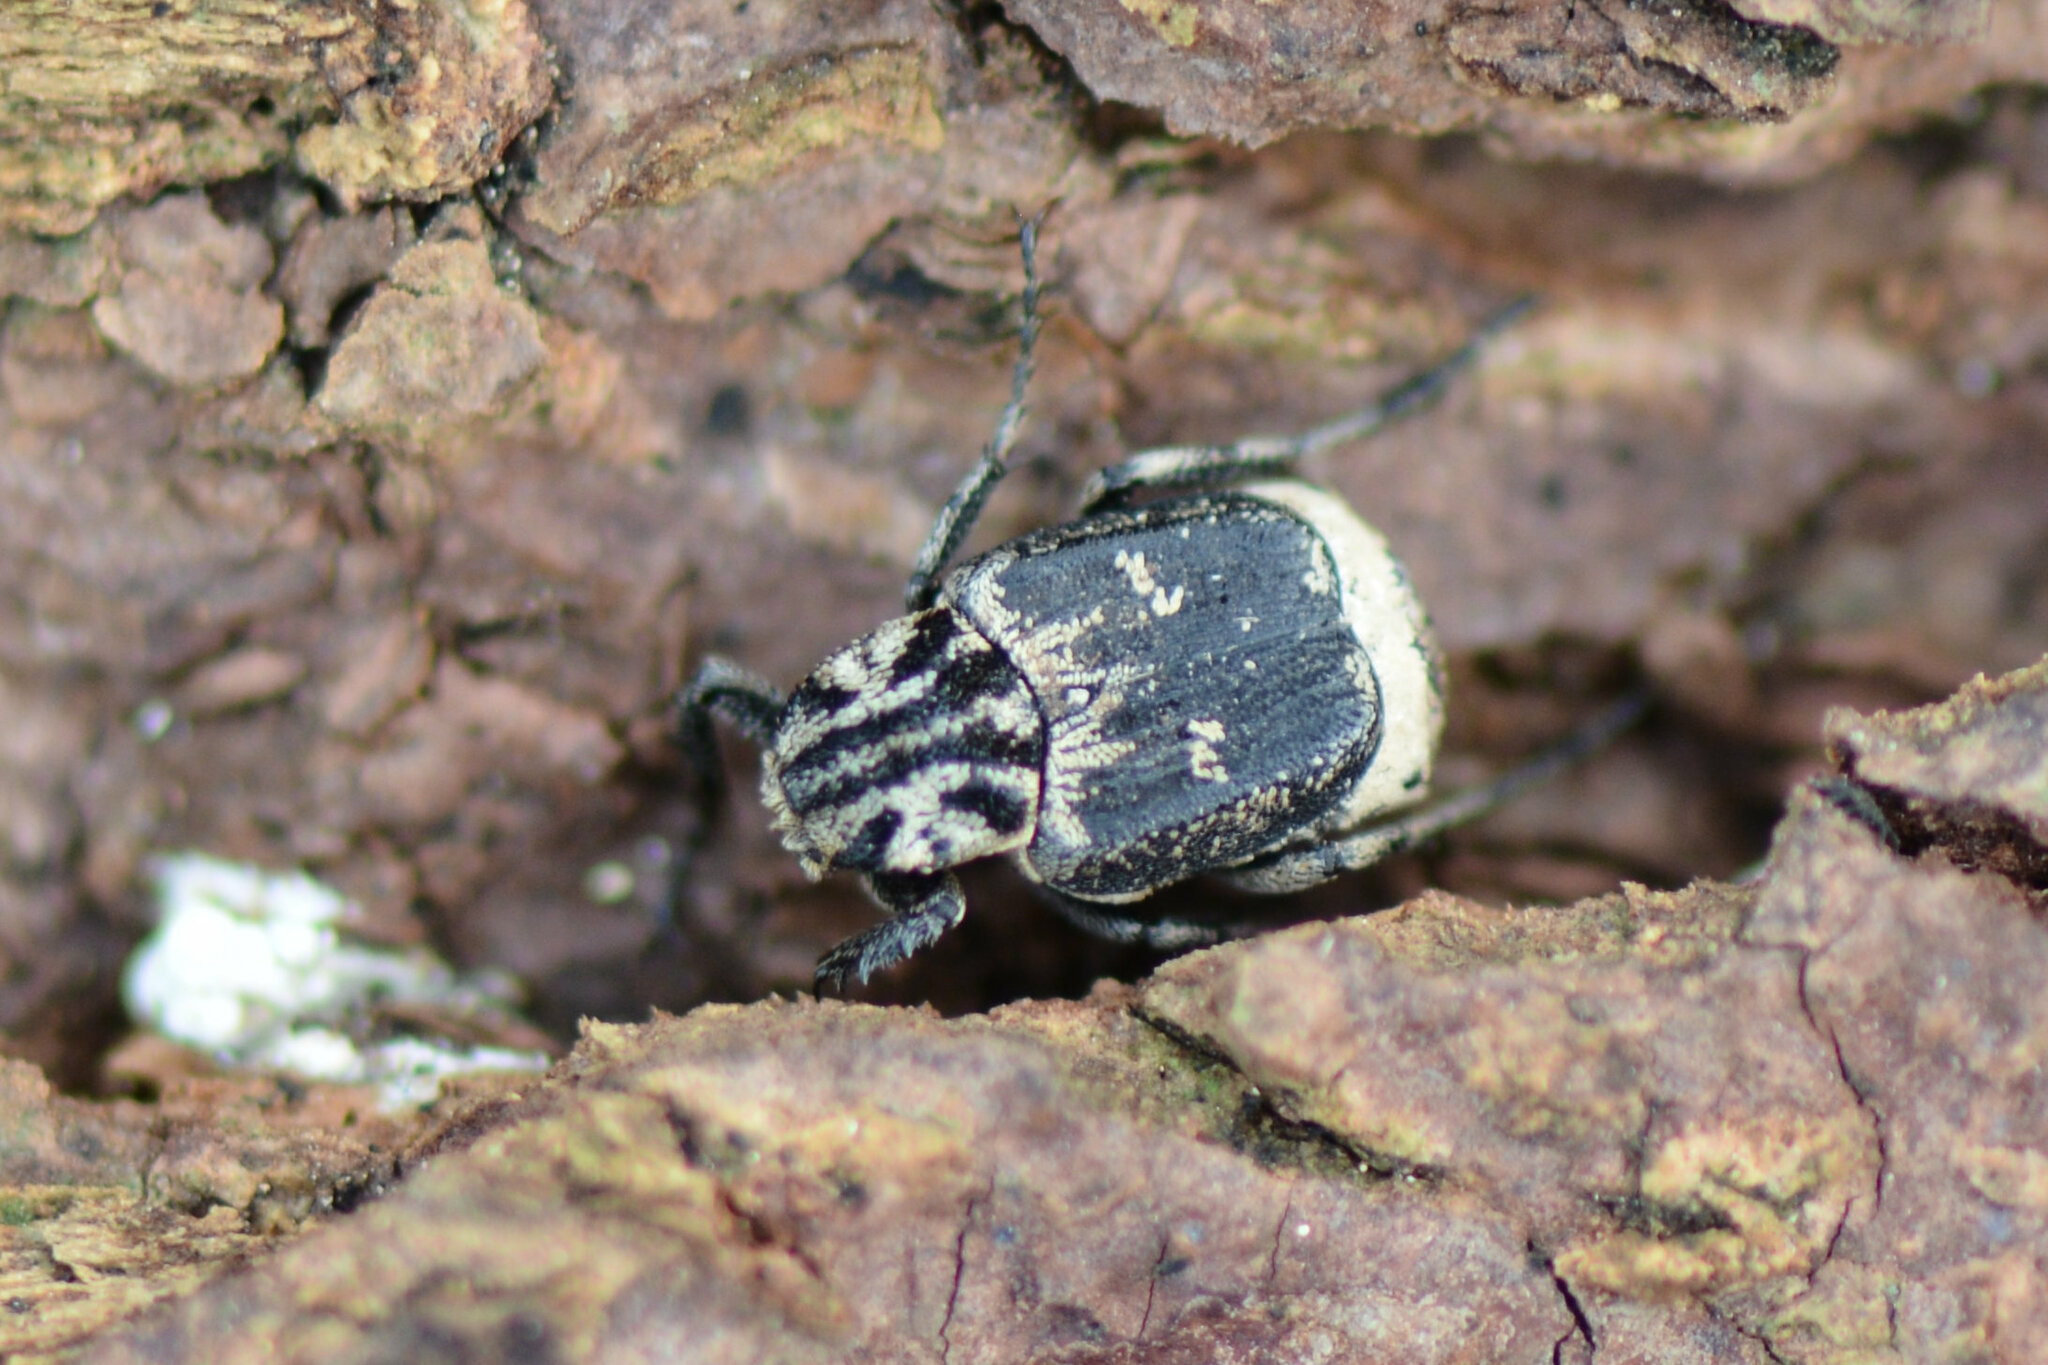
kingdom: Animalia
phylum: Arthropoda
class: Insecta
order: Coleoptera
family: Scarabaeidae
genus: Valgus
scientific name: Valgus hemipterus
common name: Bug flower chafer
